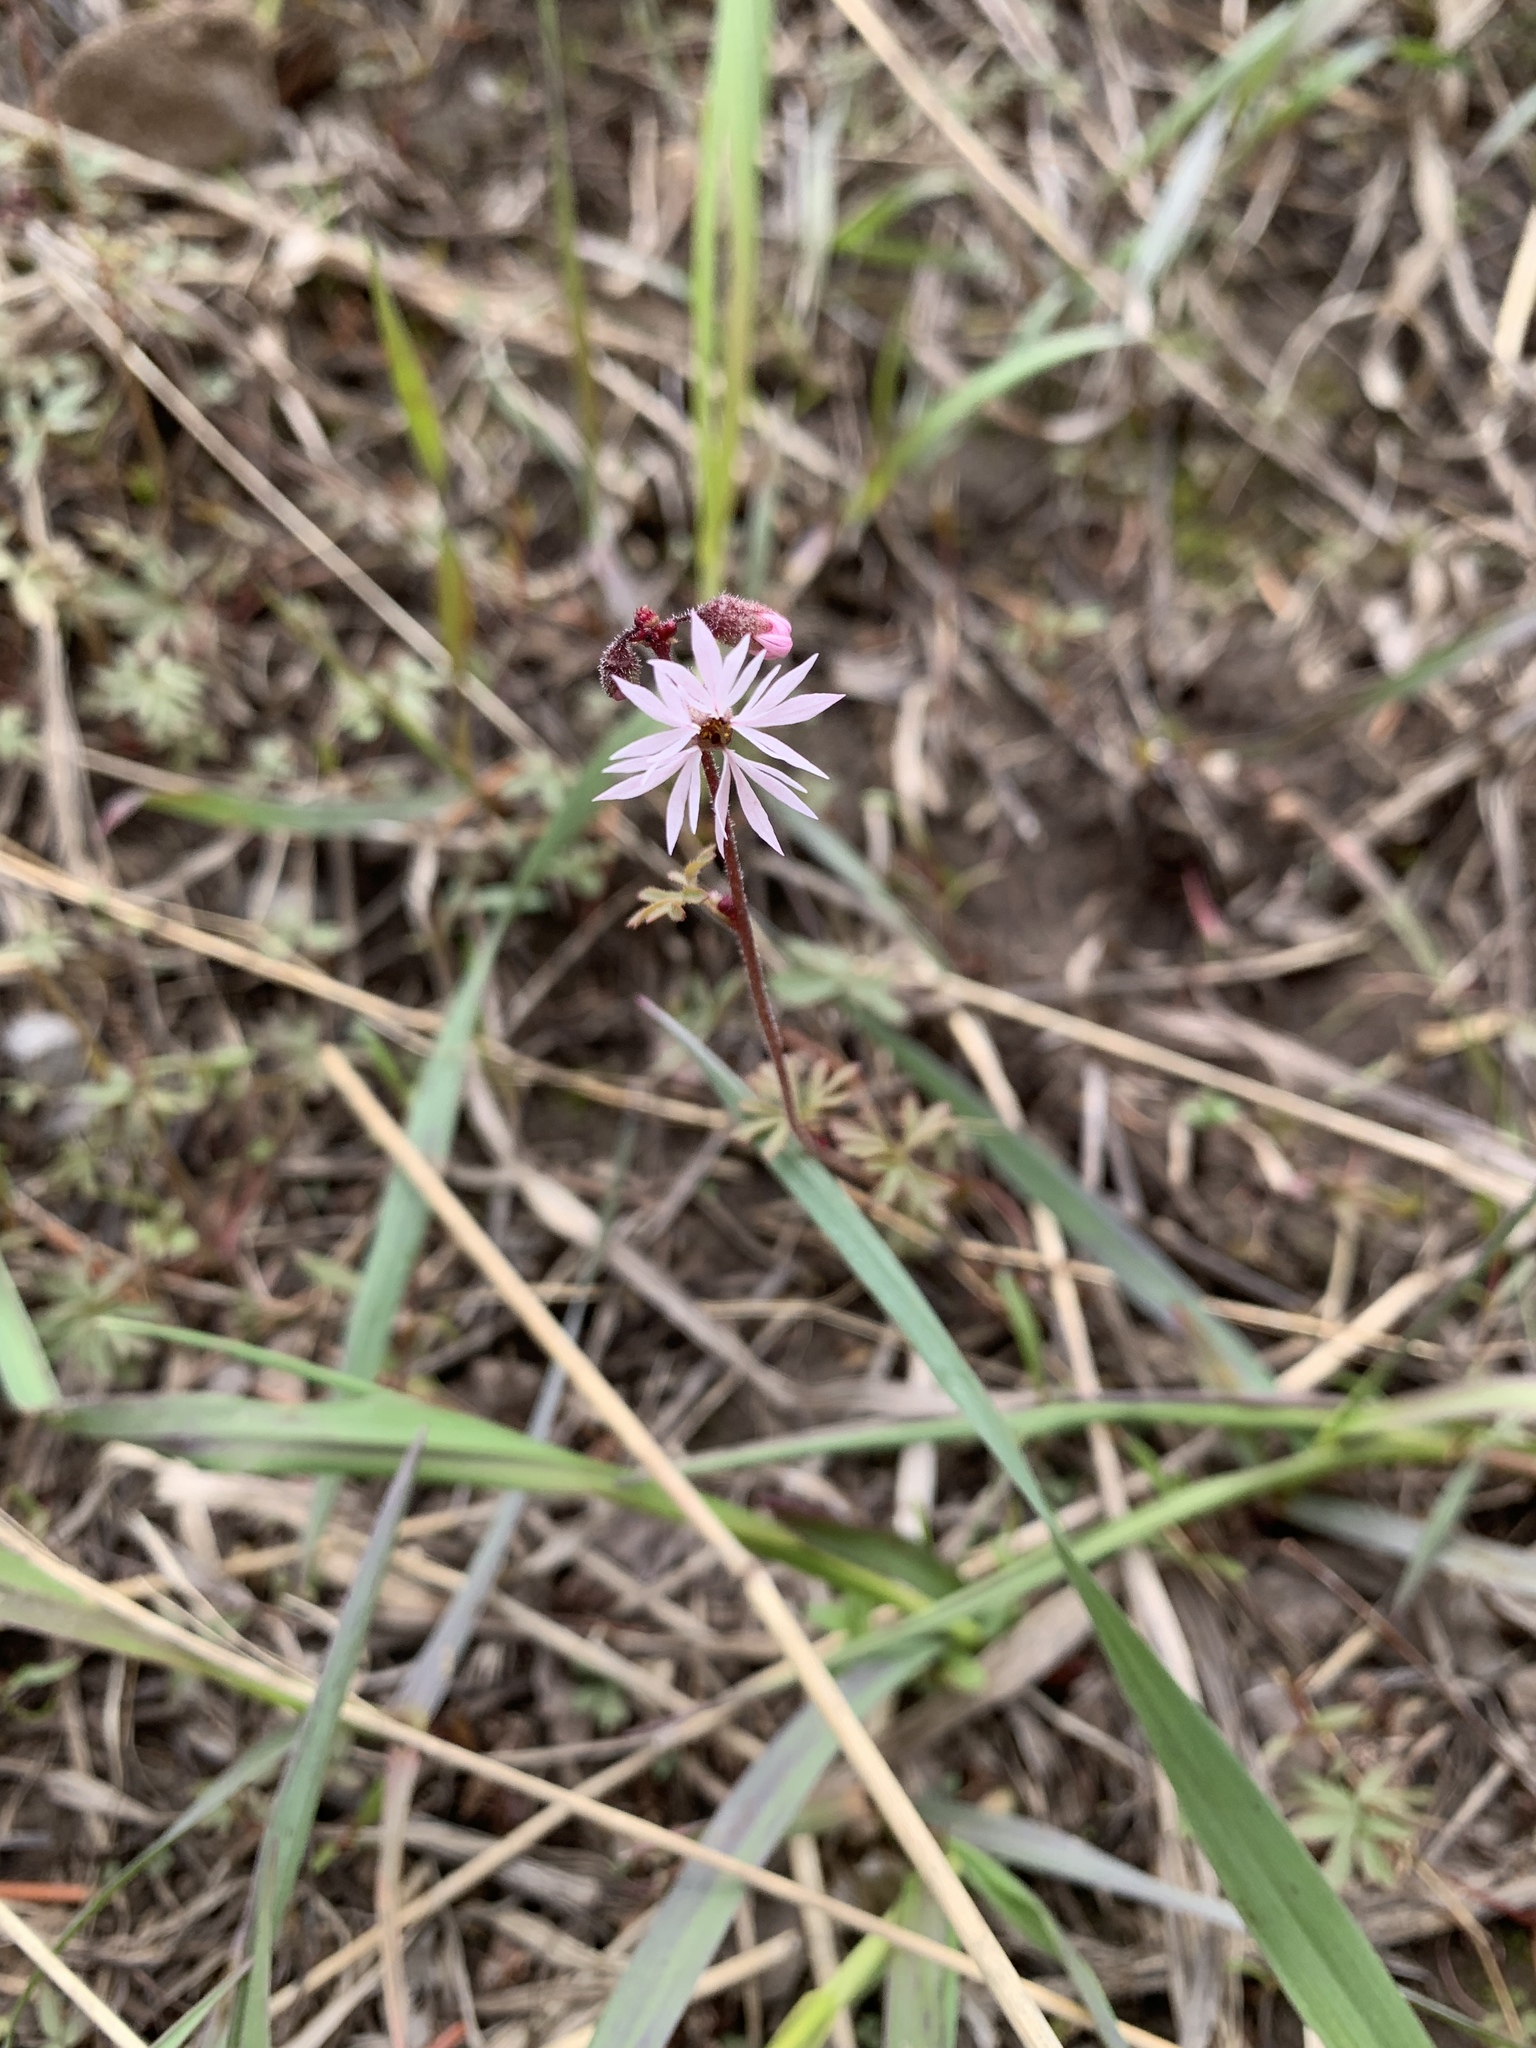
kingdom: Plantae
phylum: Tracheophyta
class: Magnoliopsida
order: Saxifragales
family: Saxifragaceae
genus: Lithophragma
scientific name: Lithophragma glabrum
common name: Bulbous prairie-star
